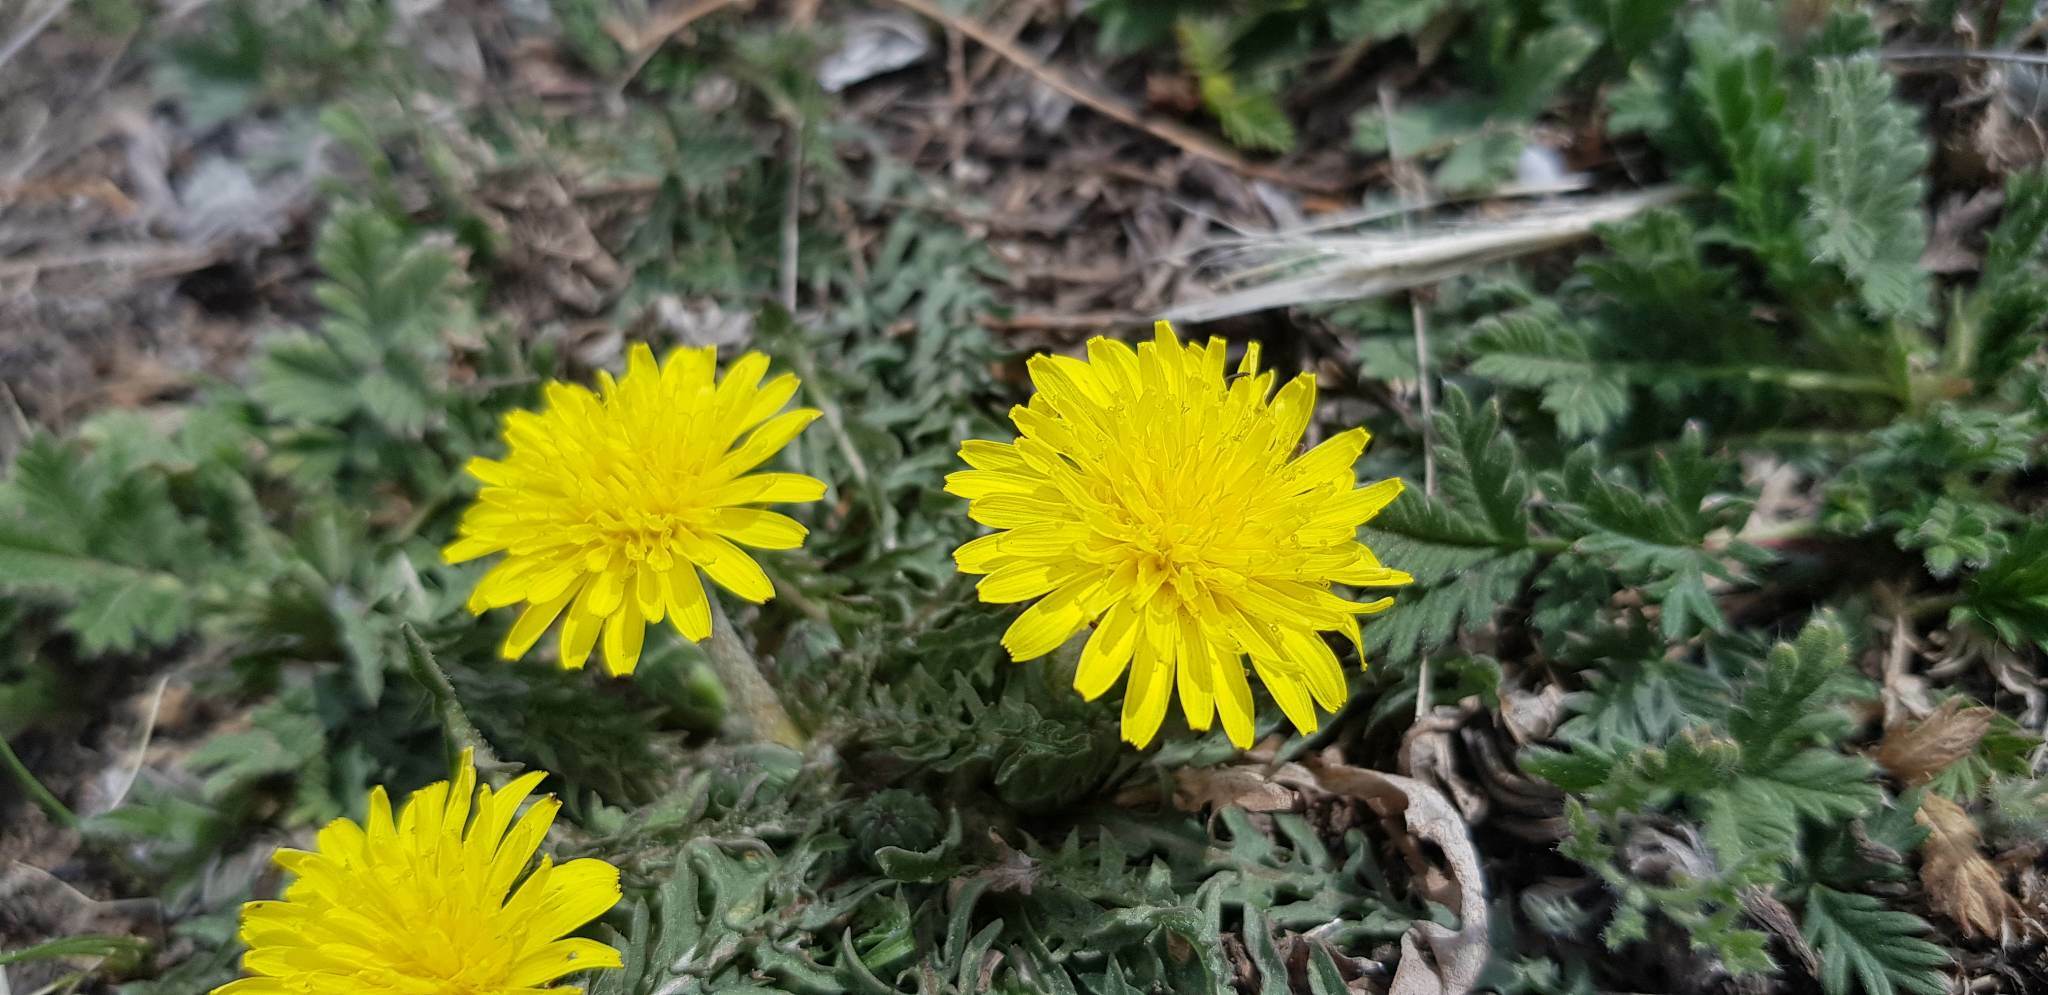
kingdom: Plantae
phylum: Tracheophyta
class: Magnoliopsida
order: Asterales
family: Asteraceae
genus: Taraxacum
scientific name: Taraxacum officinale
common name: Common dandelion
